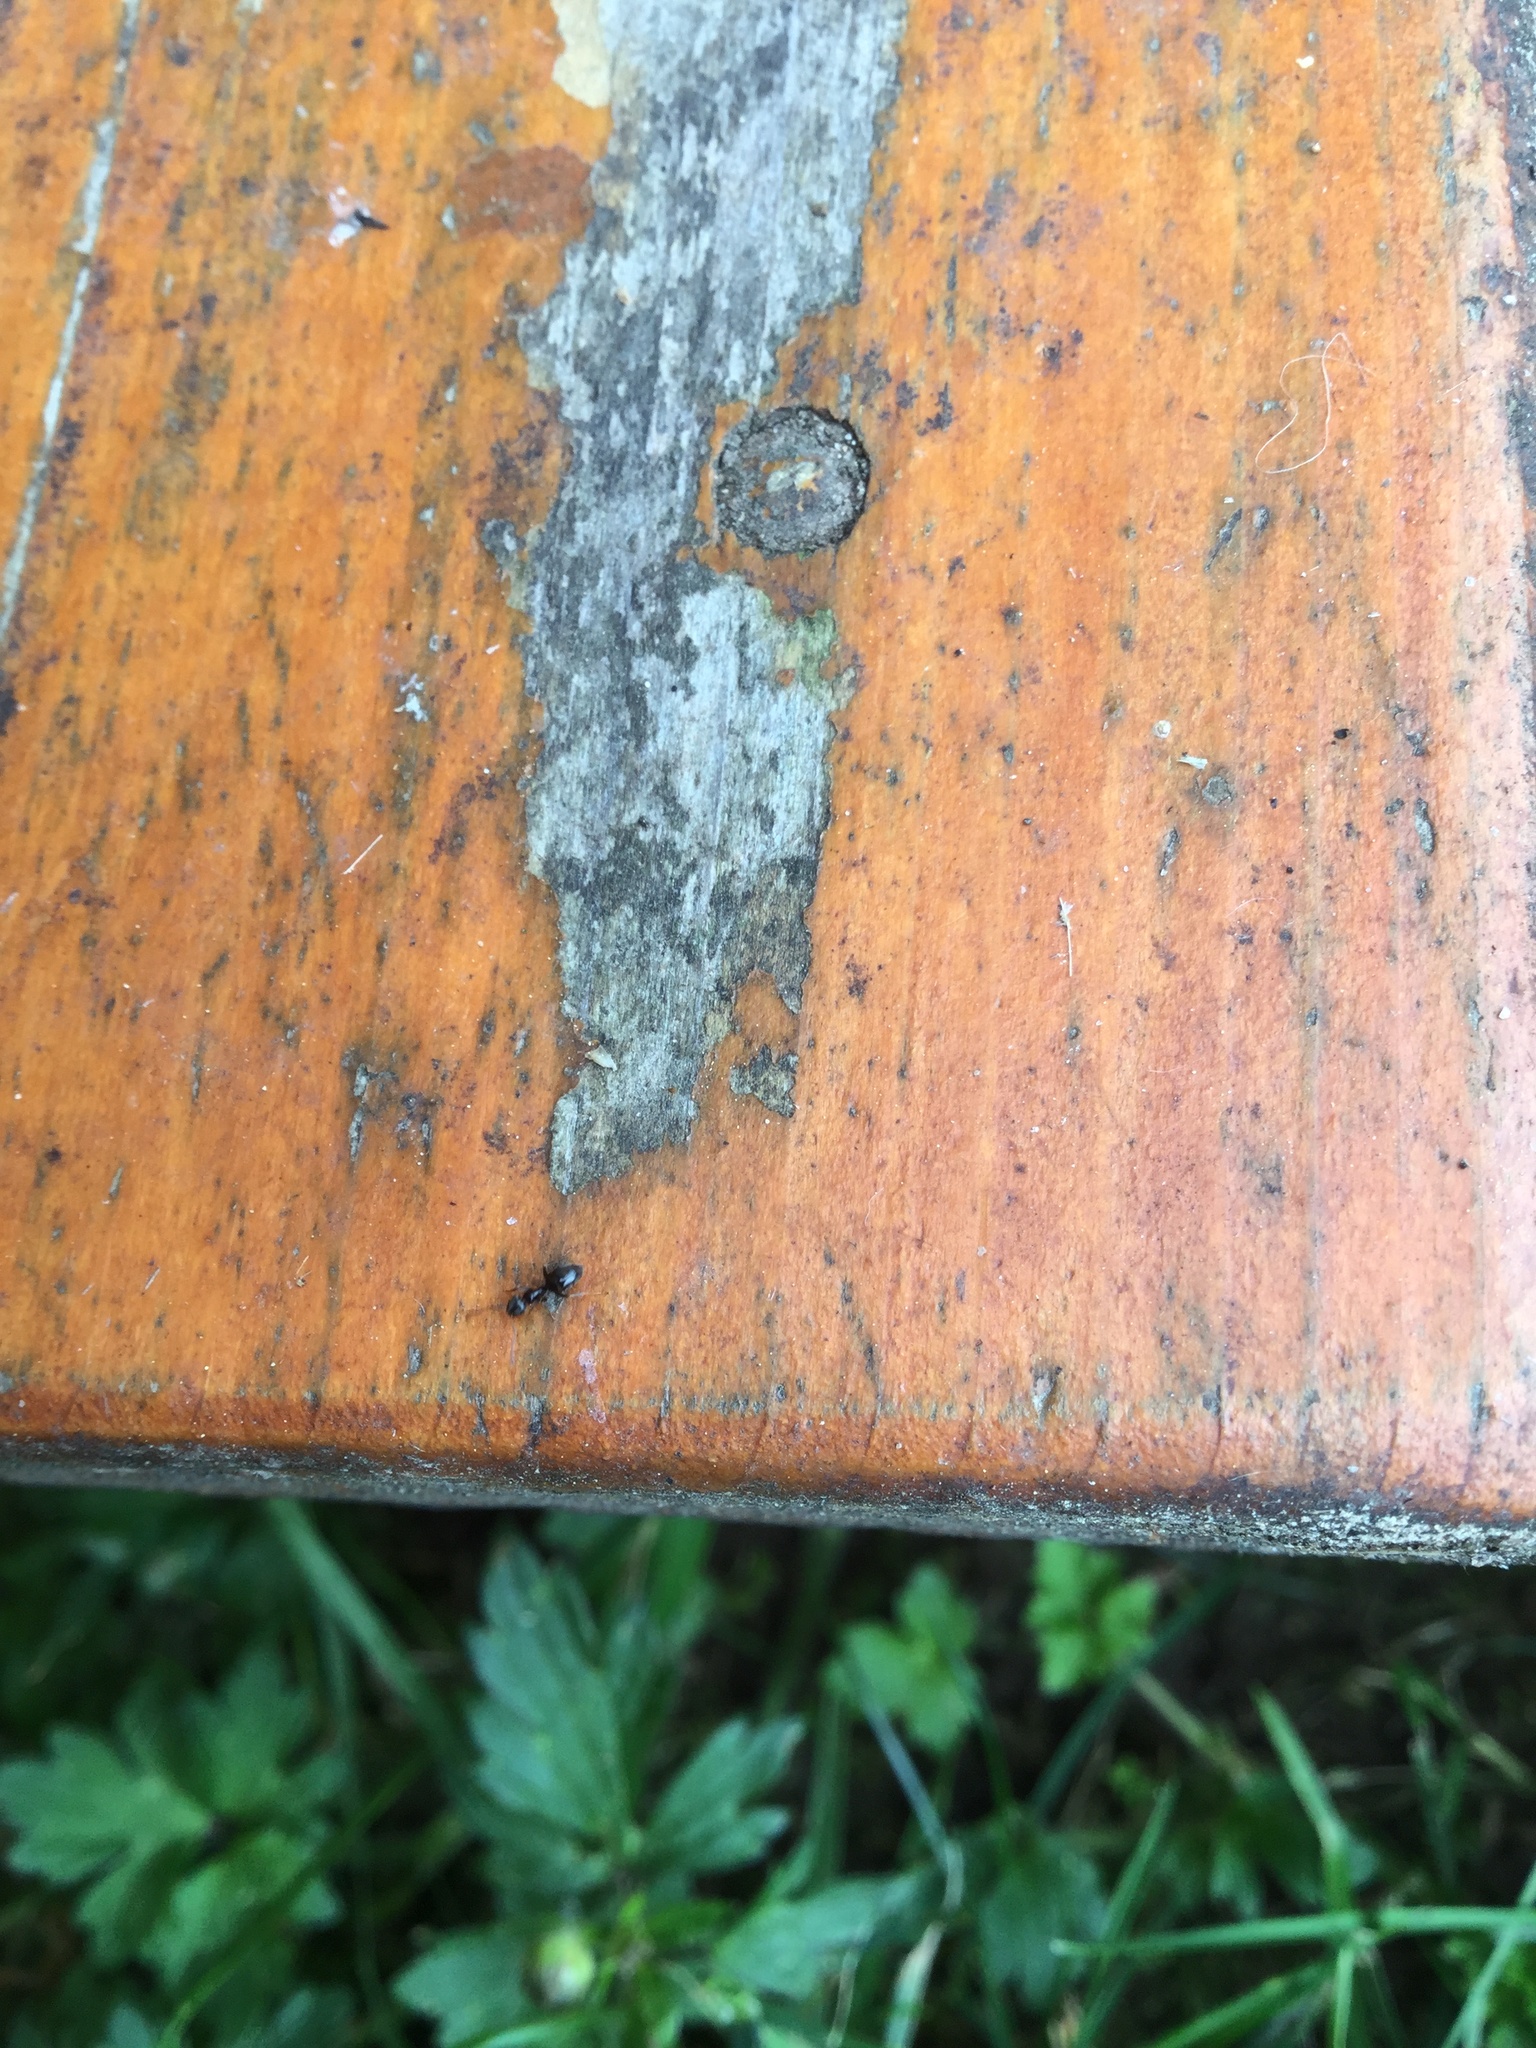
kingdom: Animalia
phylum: Arthropoda
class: Insecta
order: Hymenoptera
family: Formicidae
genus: Tapinoma
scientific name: Tapinoma sessile
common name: Odorous house ant
